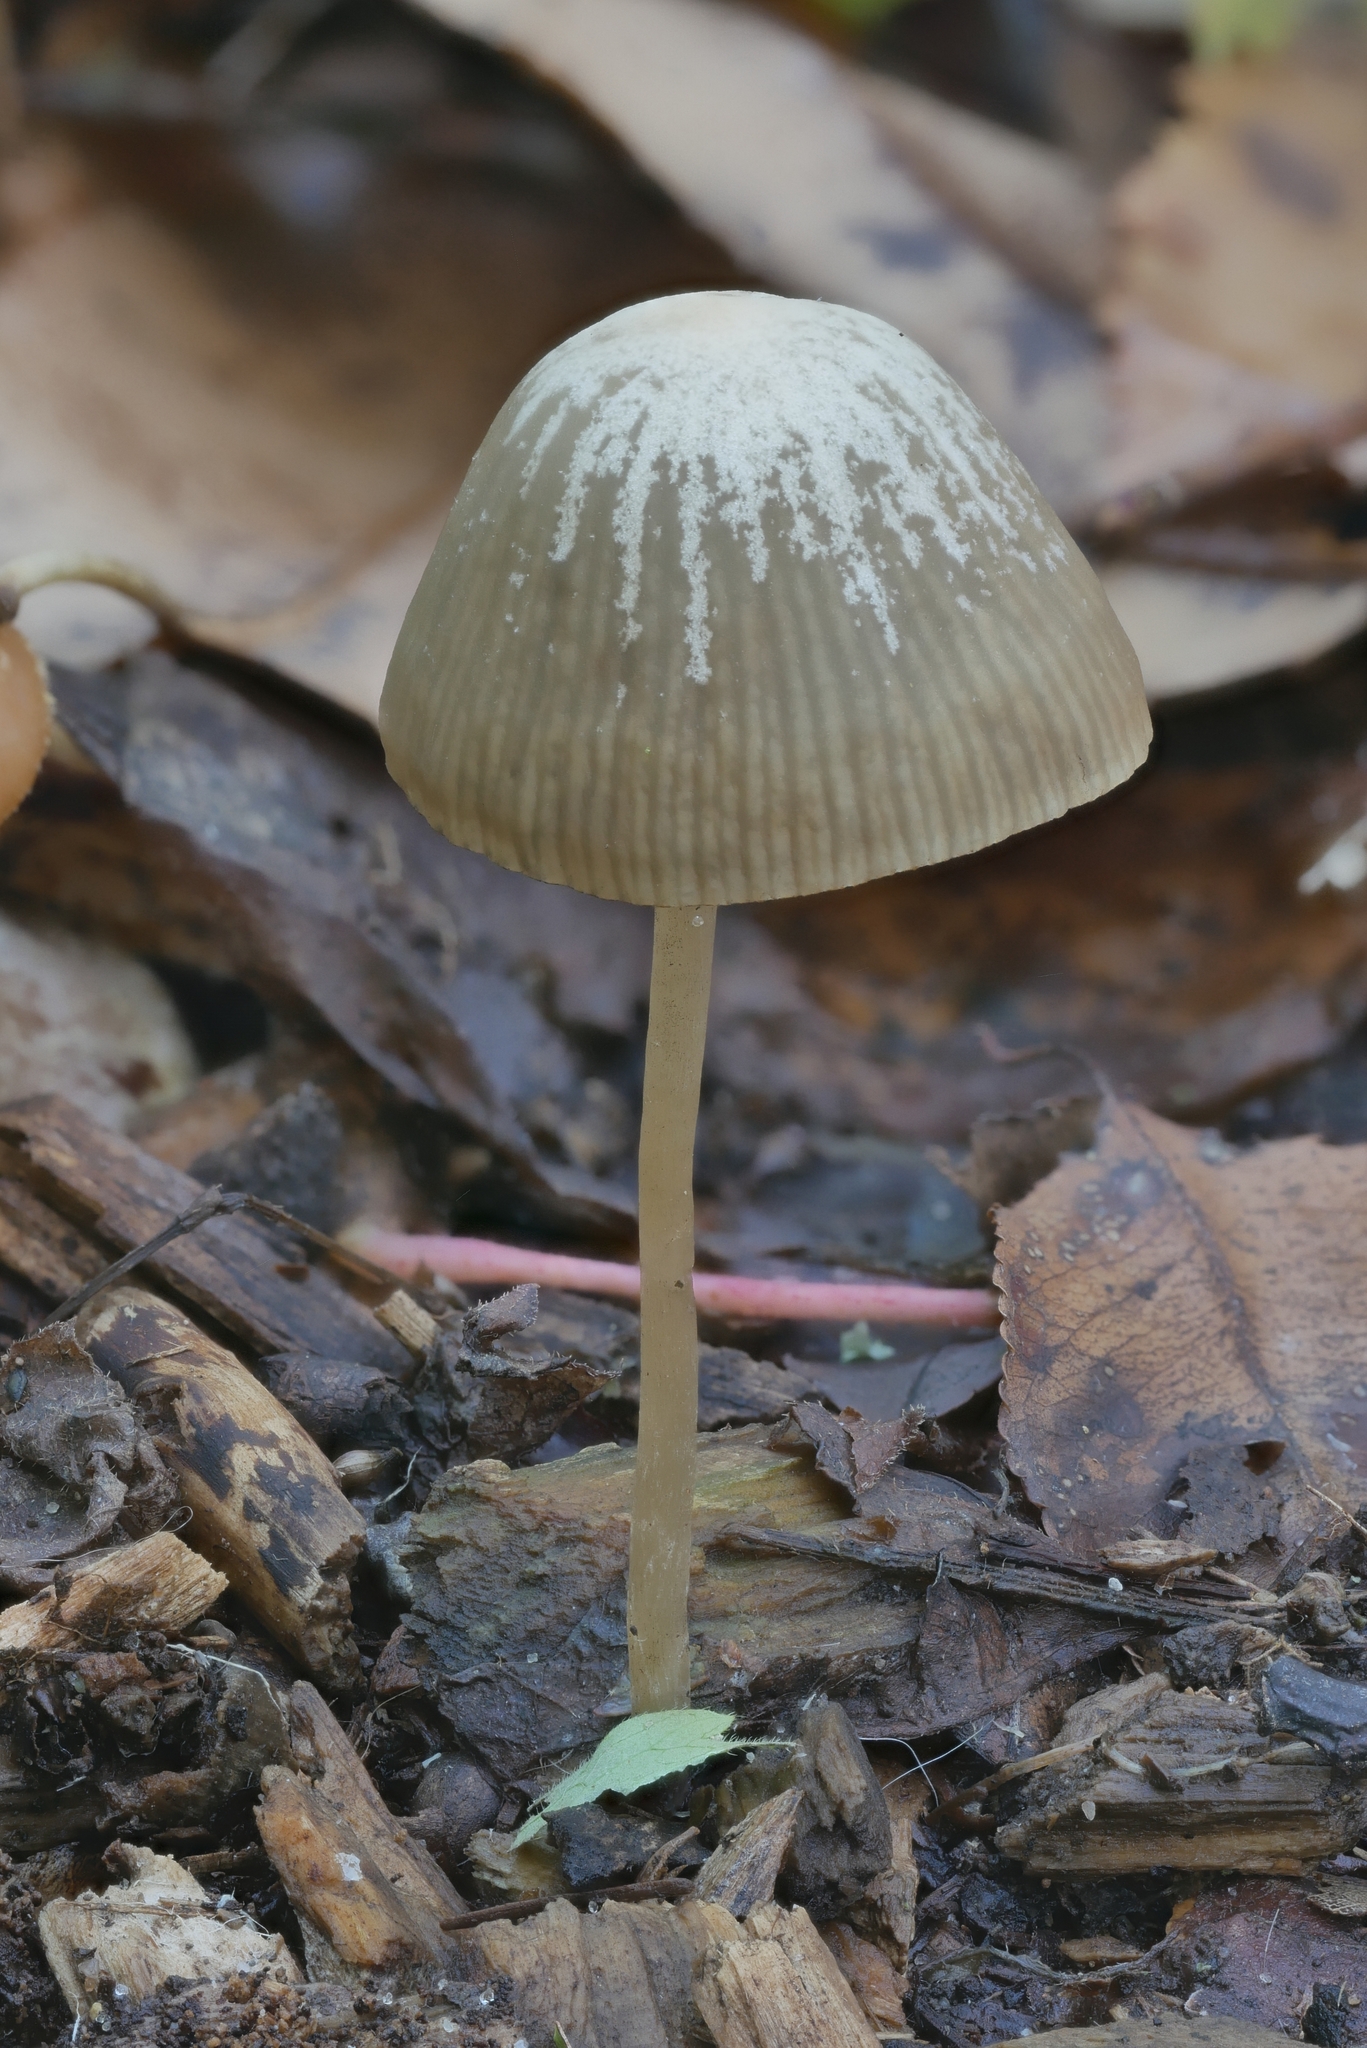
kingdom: Fungi
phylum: Basidiomycota
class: Agaricomycetes
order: Agaricales
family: Psathyrellaceae
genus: Psathyrella
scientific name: Psathyrella amarescens
